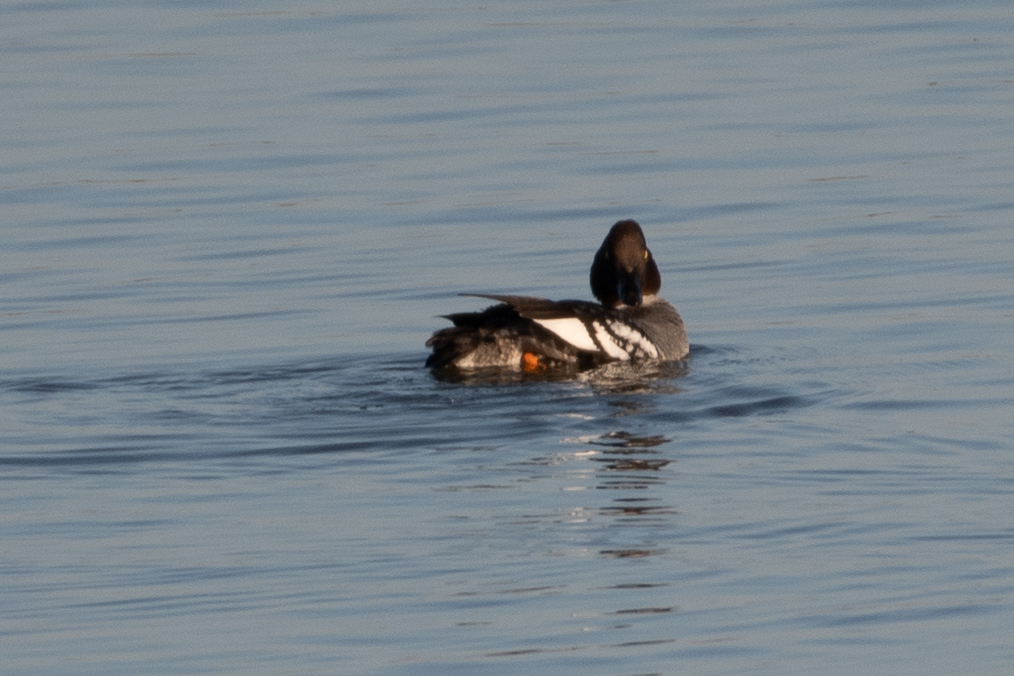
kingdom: Animalia
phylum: Chordata
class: Aves
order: Anseriformes
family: Anatidae
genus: Bucephala
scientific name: Bucephala clangula
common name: Common goldeneye
